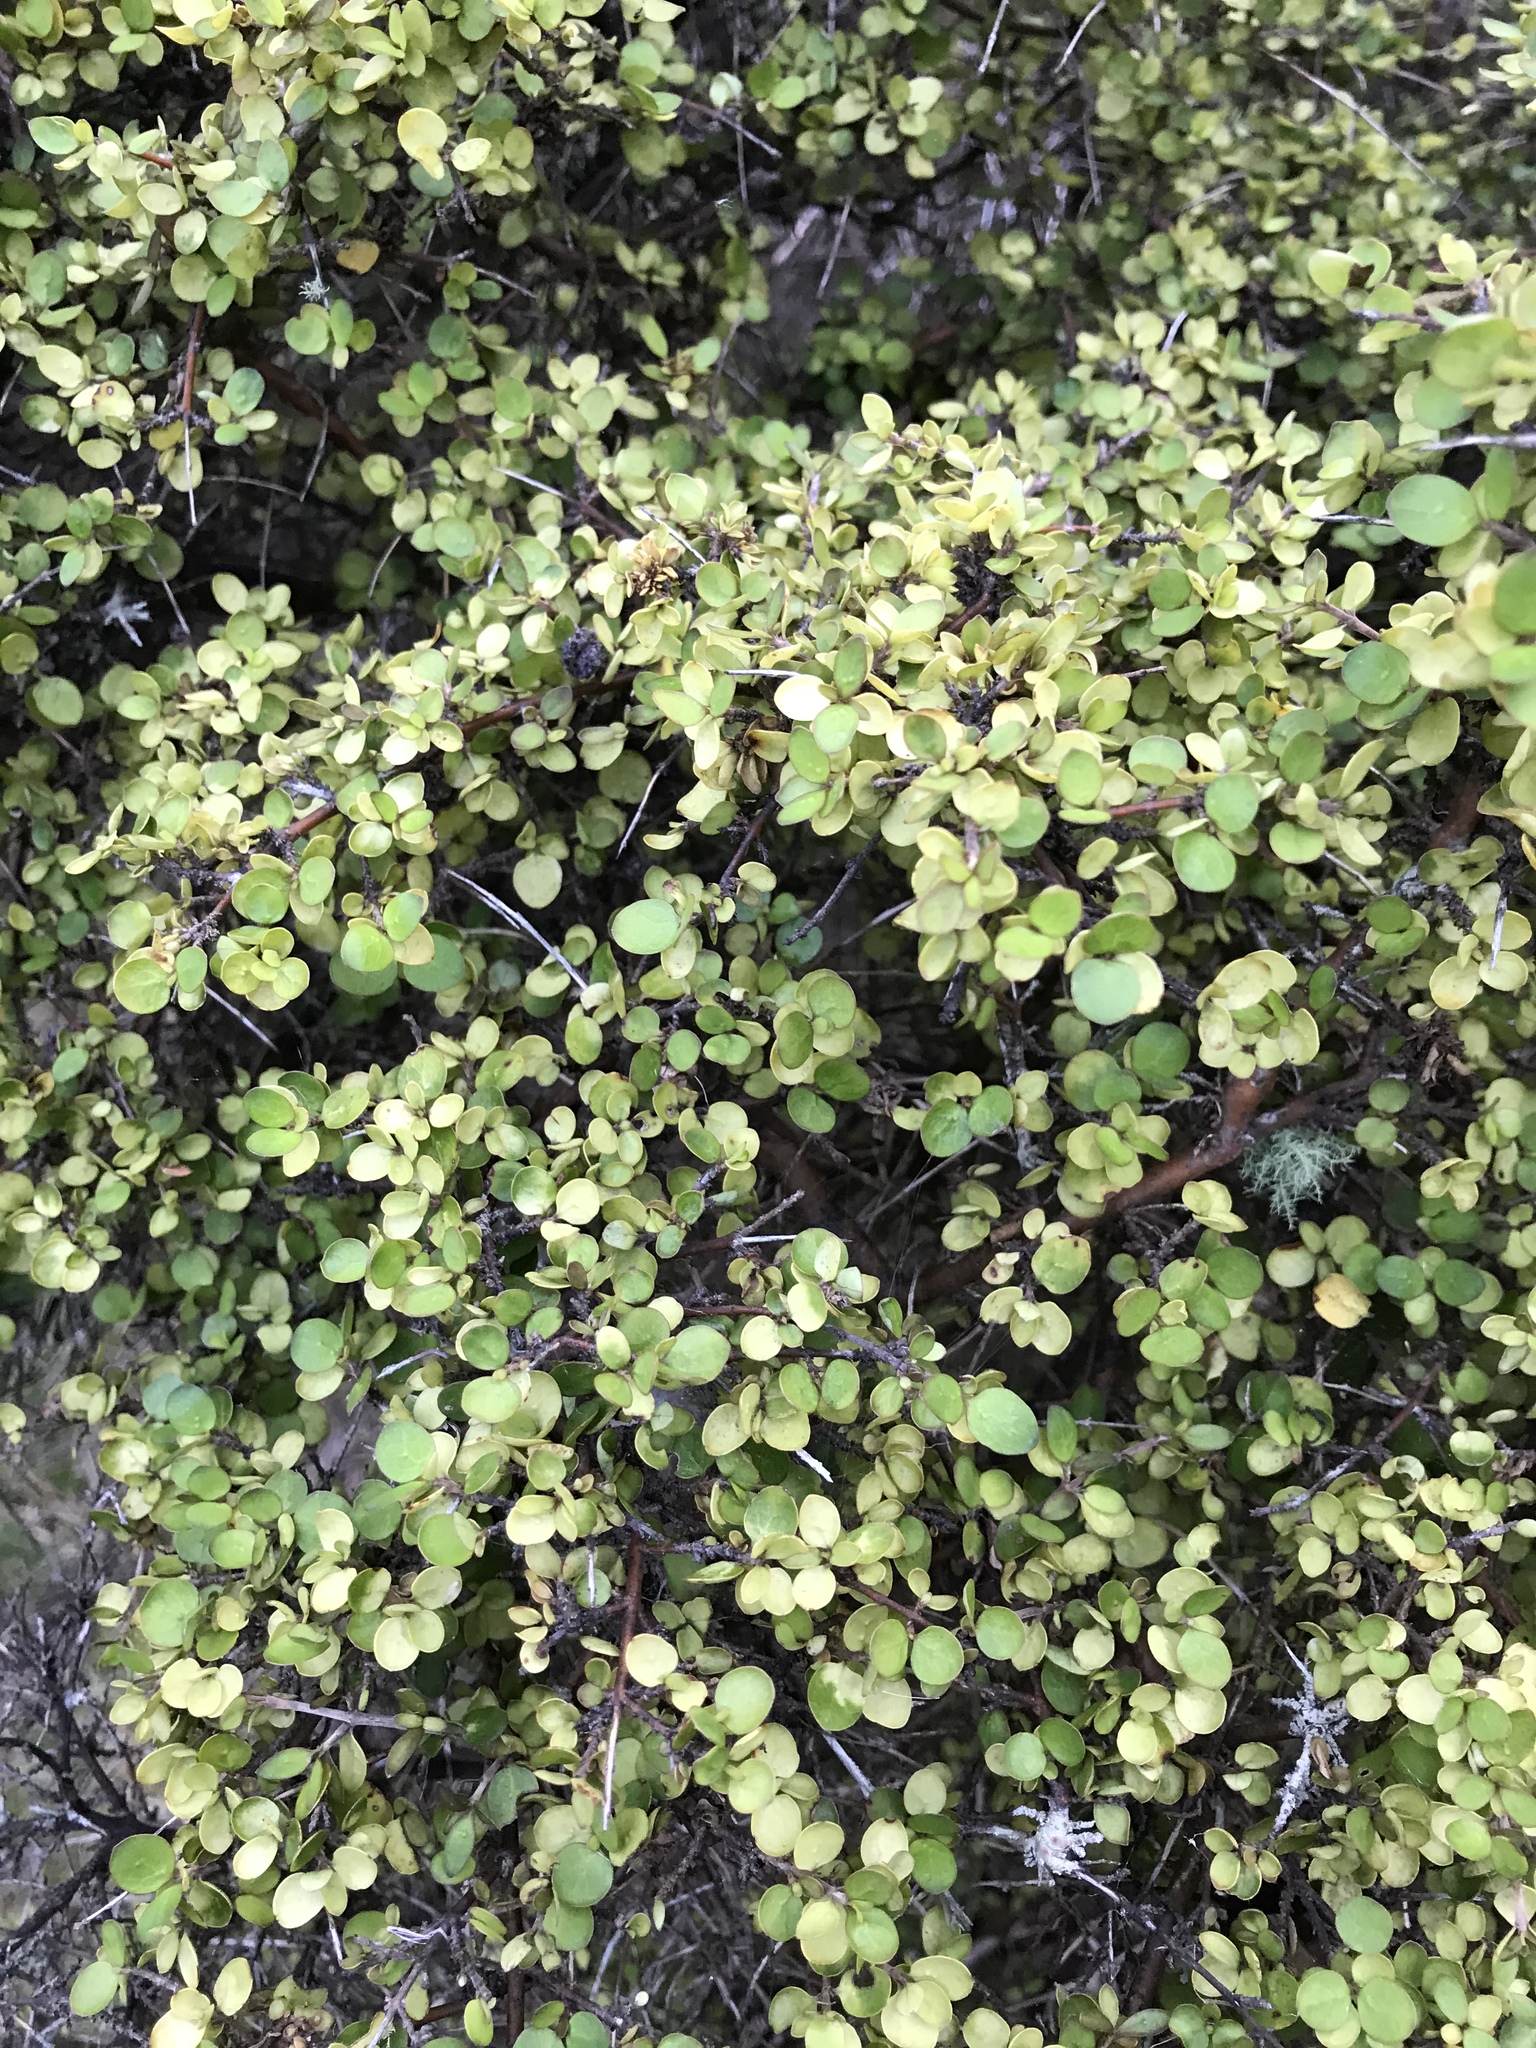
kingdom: Plantae
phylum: Tracheophyta
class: Magnoliopsida
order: Gentianales
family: Rubiaceae
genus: Coprosma
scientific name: Coprosma rhamnoides
